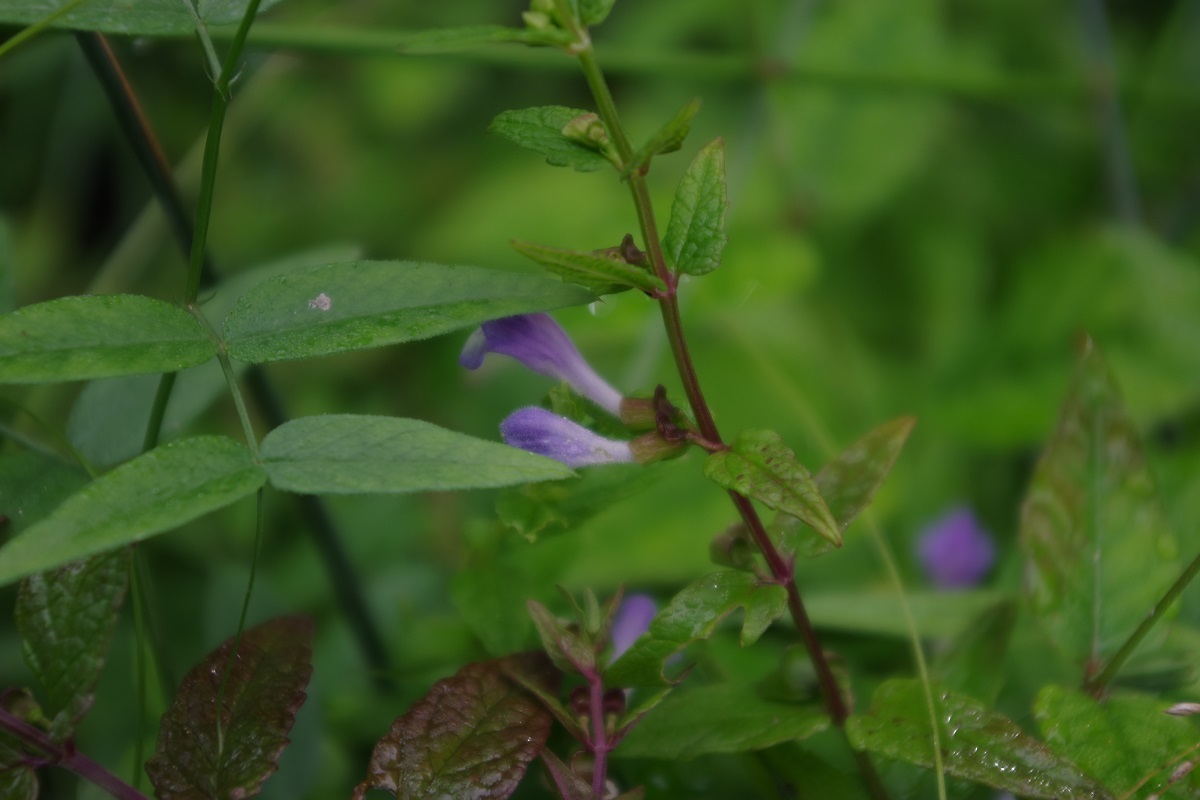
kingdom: Plantae
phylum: Tracheophyta
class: Magnoliopsida
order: Lamiales
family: Lamiaceae
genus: Scutellaria
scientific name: Scutellaria galericulata
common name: Skullcap
